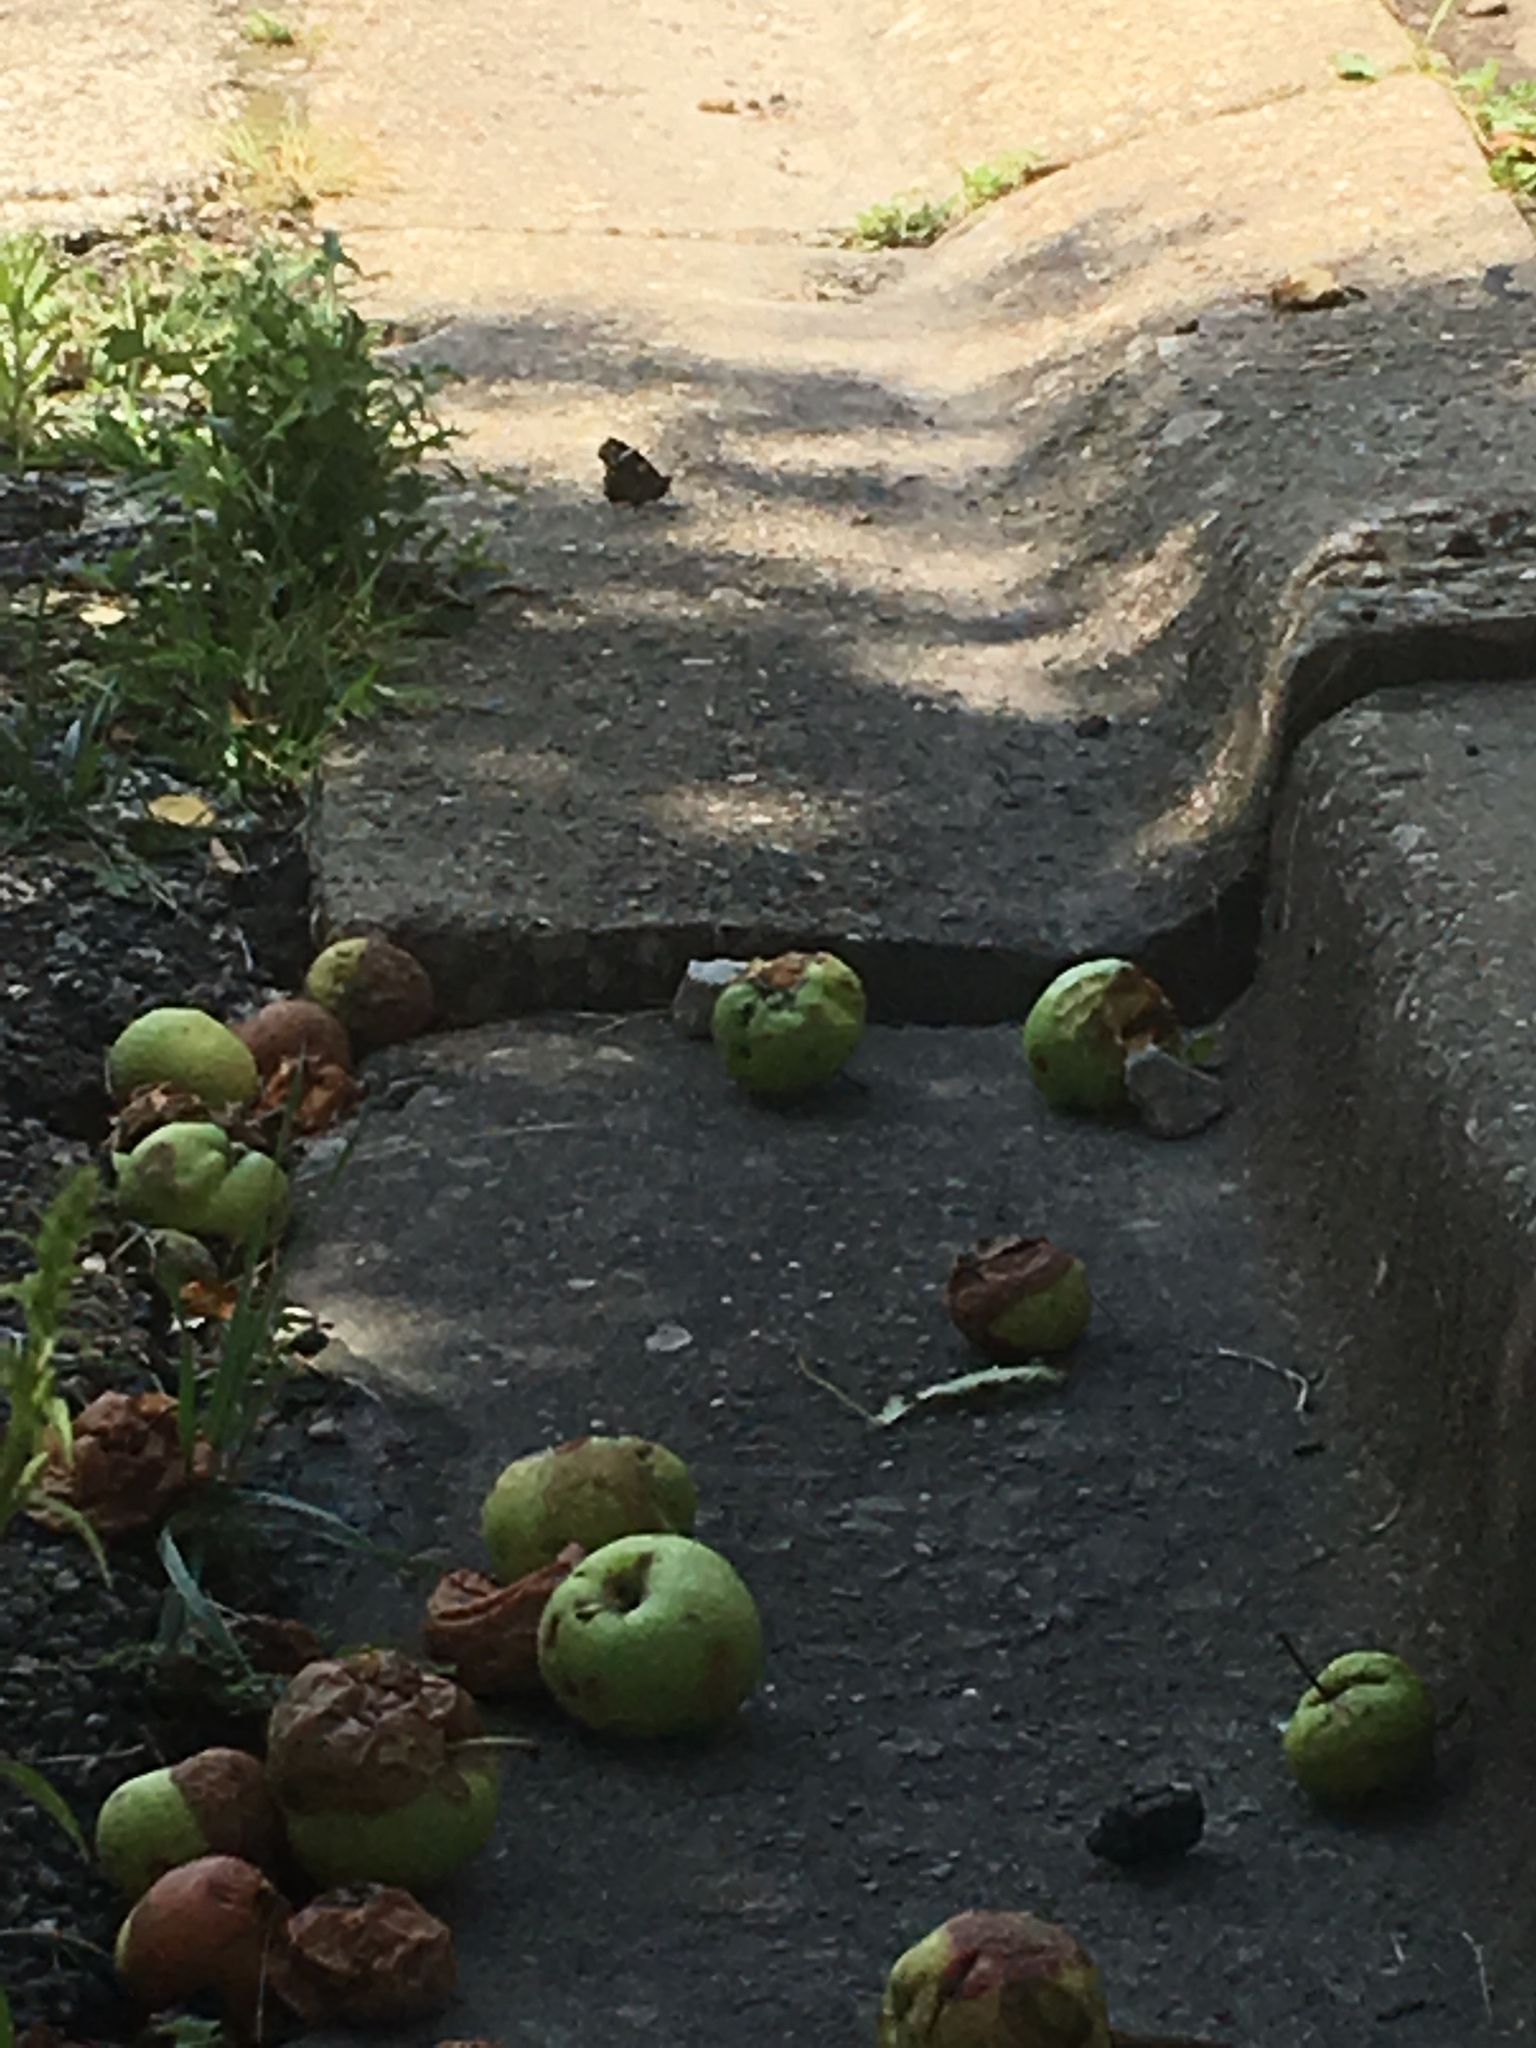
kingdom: Animalia
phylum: Arthropoda
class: Insecta
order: Lepidoptera
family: Nymphalidae
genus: Vanessa
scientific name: Vanessa atalanta
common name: Red admiral
